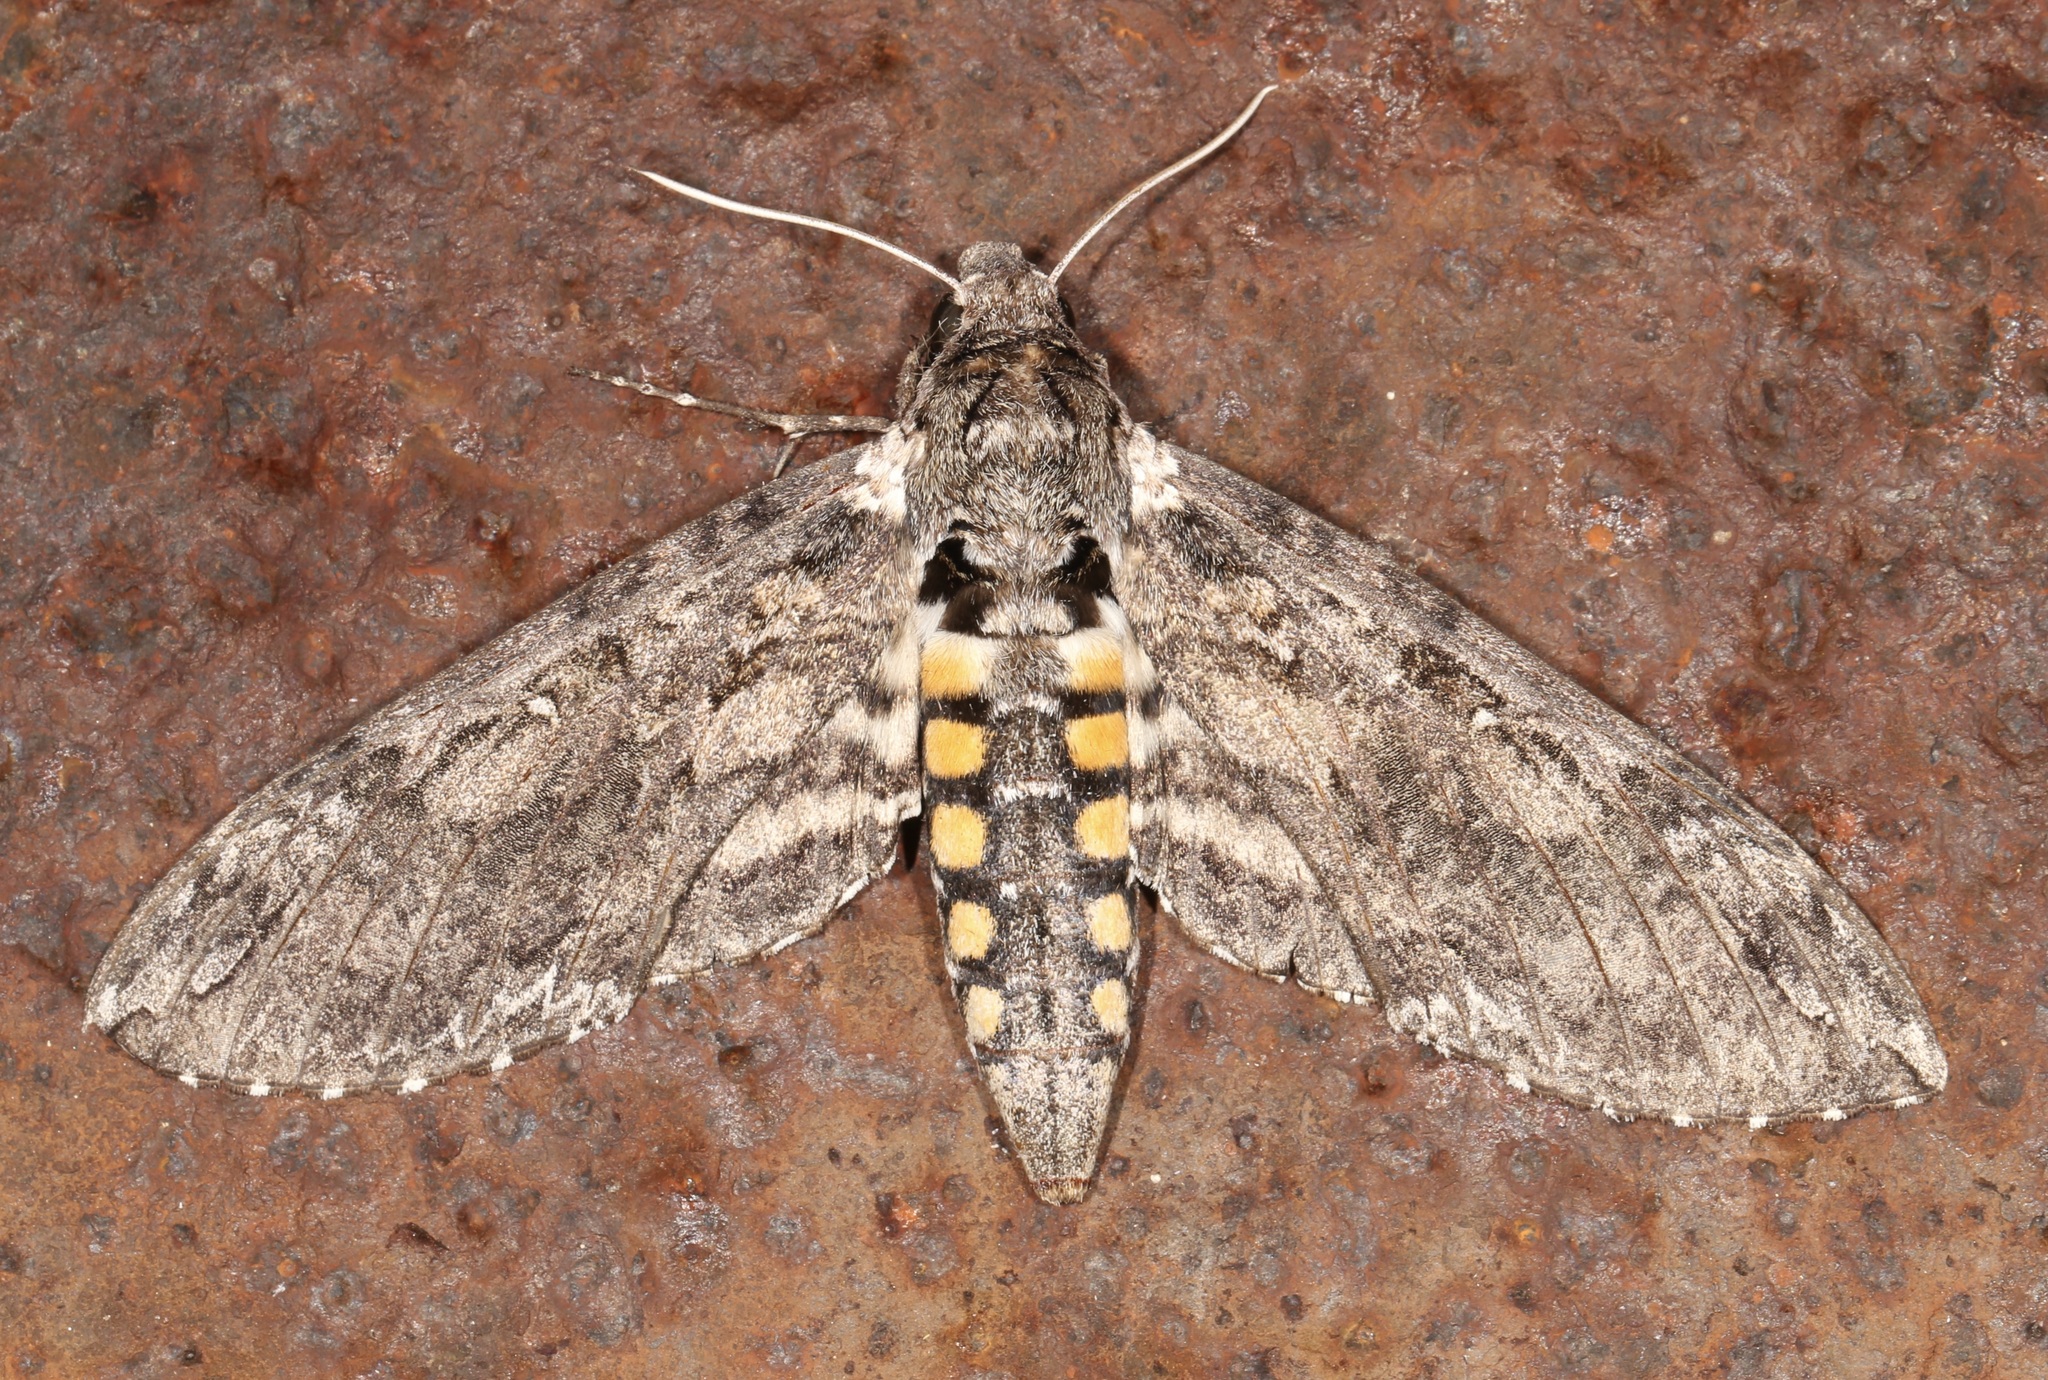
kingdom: Animalia
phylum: Arthropoda
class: Insecta
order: Lepidoptera
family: Sphingidae
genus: Manduca
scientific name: Manduca sexta
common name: Carolina sphinx
